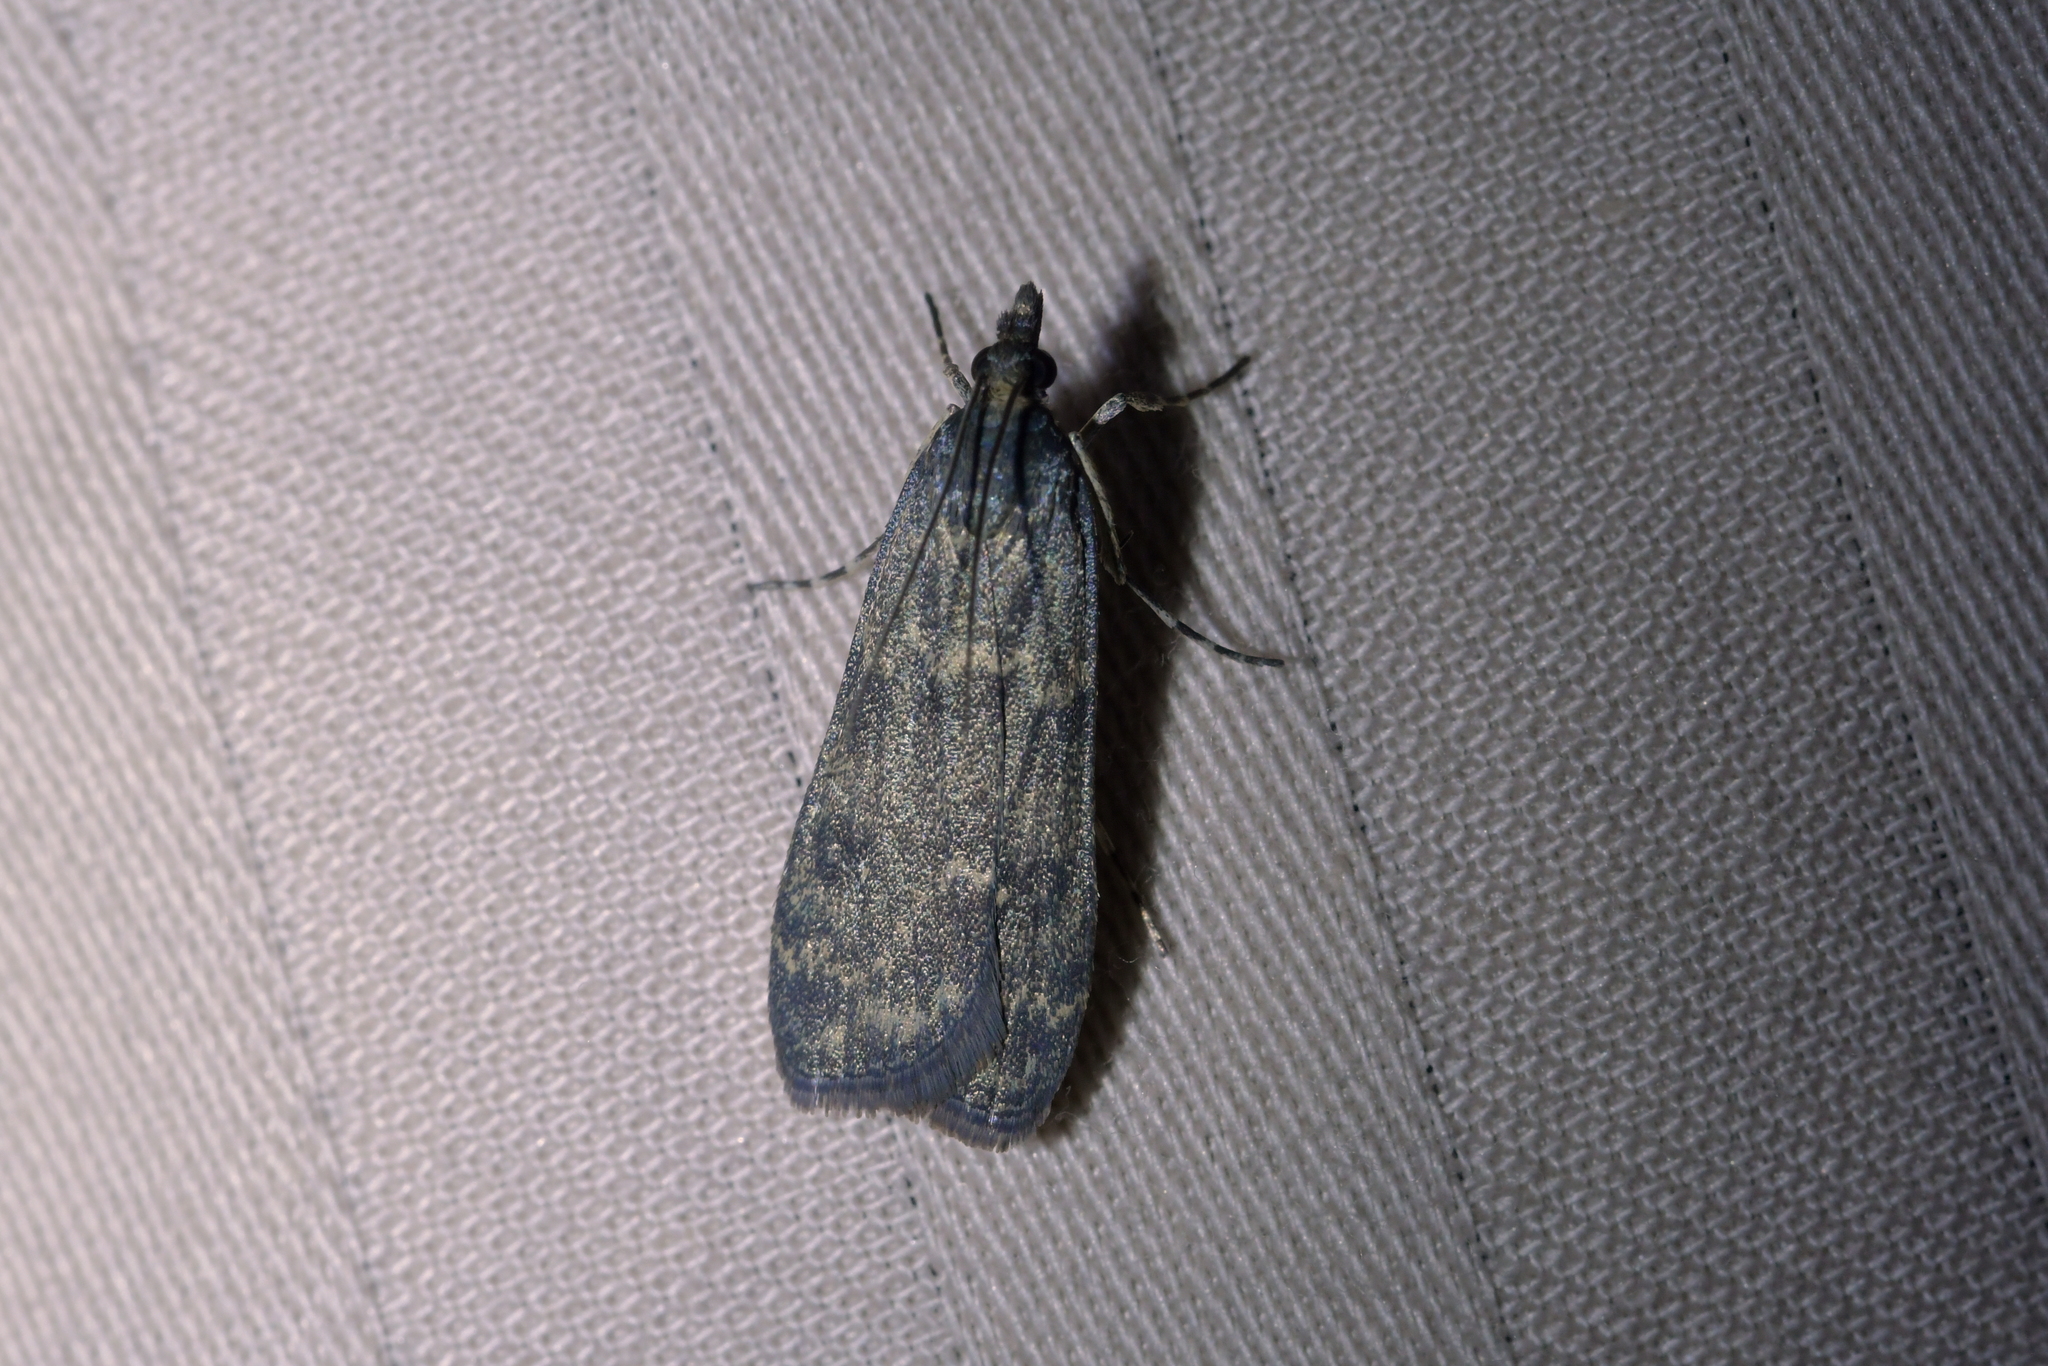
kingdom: Animalia
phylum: Arthropoda
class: Insecta
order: Lepidoptera
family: Crambidae
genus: Eudonia
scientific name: Eudonia cataxesta
